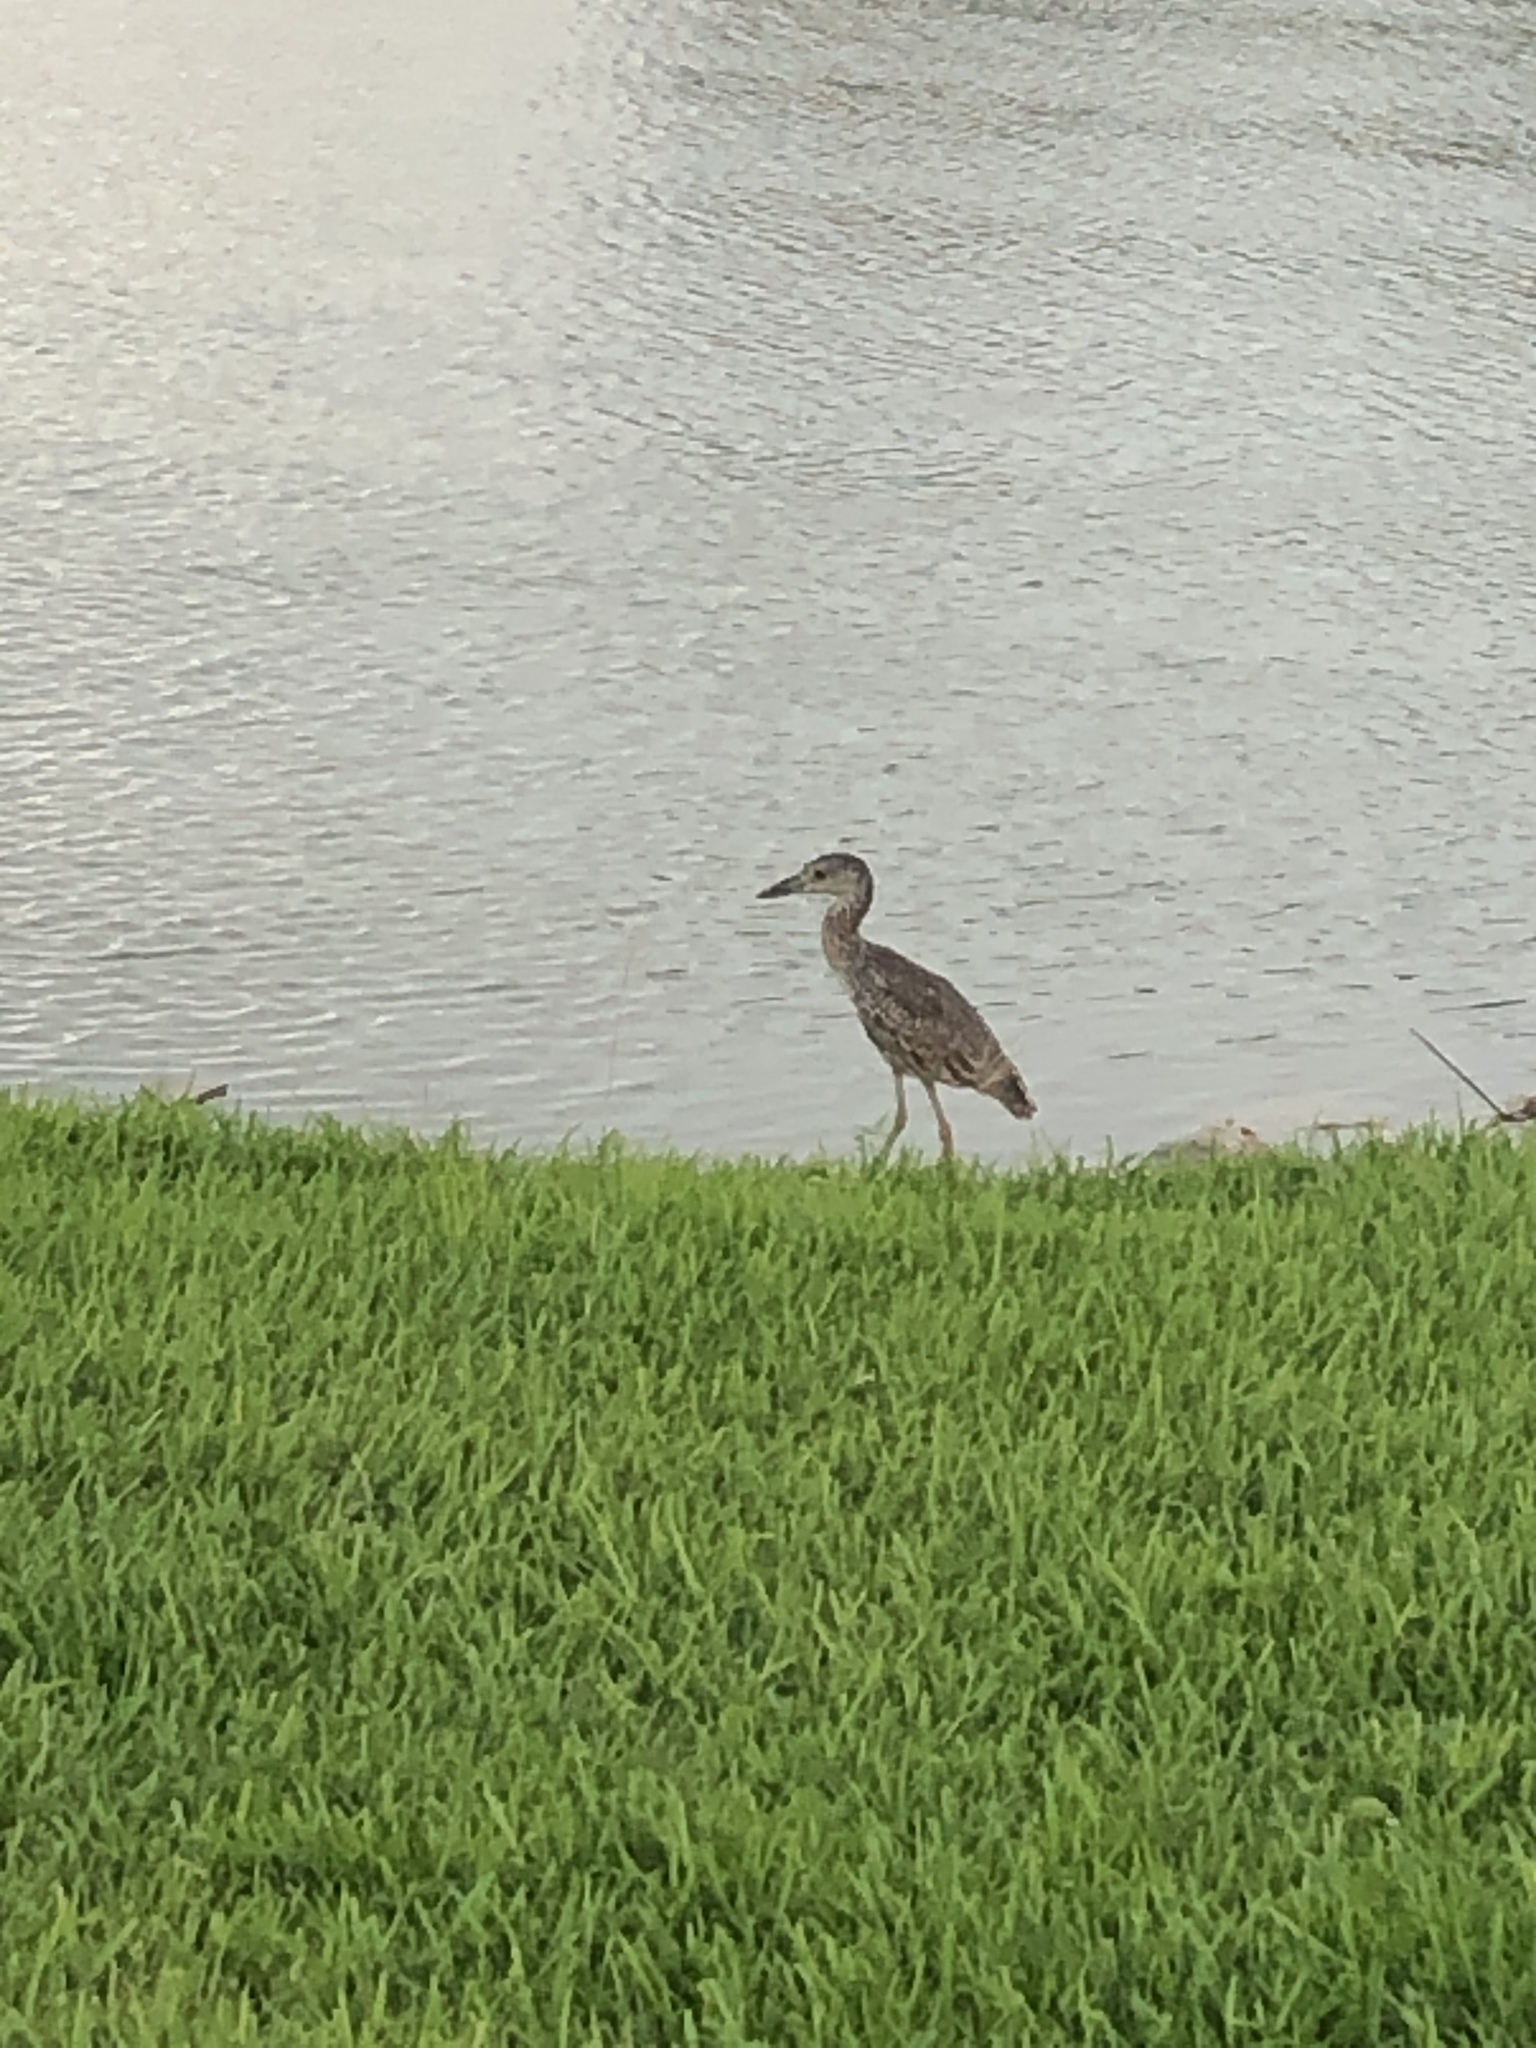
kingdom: Animalia
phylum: Chordata
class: Aves
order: Pelecaniformes
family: Ardeidae
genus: Nyctanassa
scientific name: Nyctanassa violacea
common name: Yellow-crowned night heron
